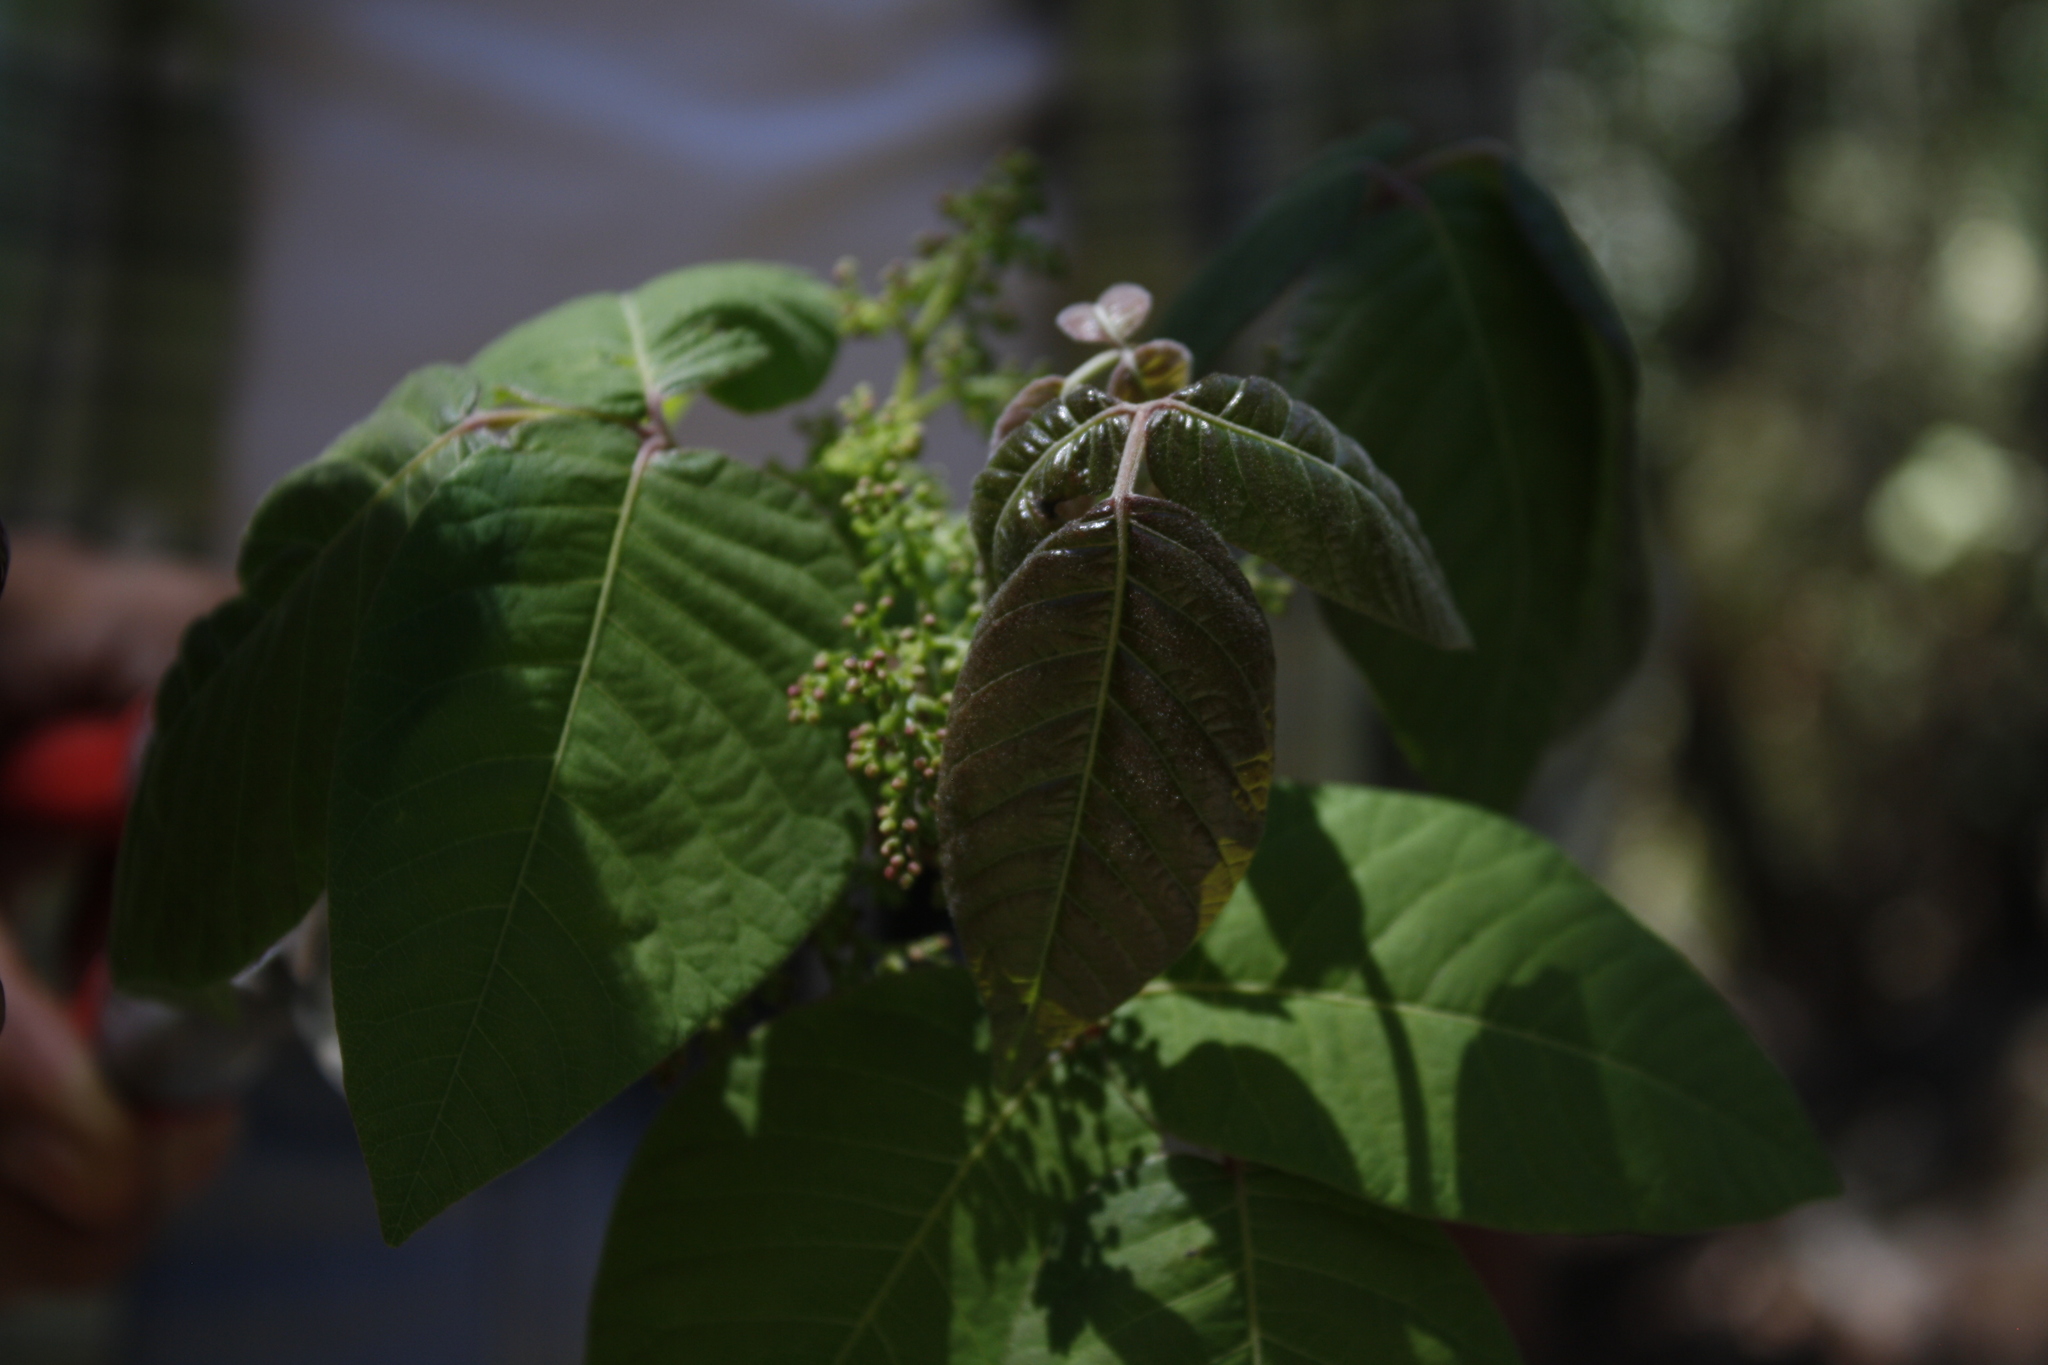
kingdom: Plantae
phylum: Tracheophyta
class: Magnoliopsida
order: Sapindales
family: Anacardiaceae
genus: Toxicodendron
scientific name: Toxicodendron radicans
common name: Poison ivy
